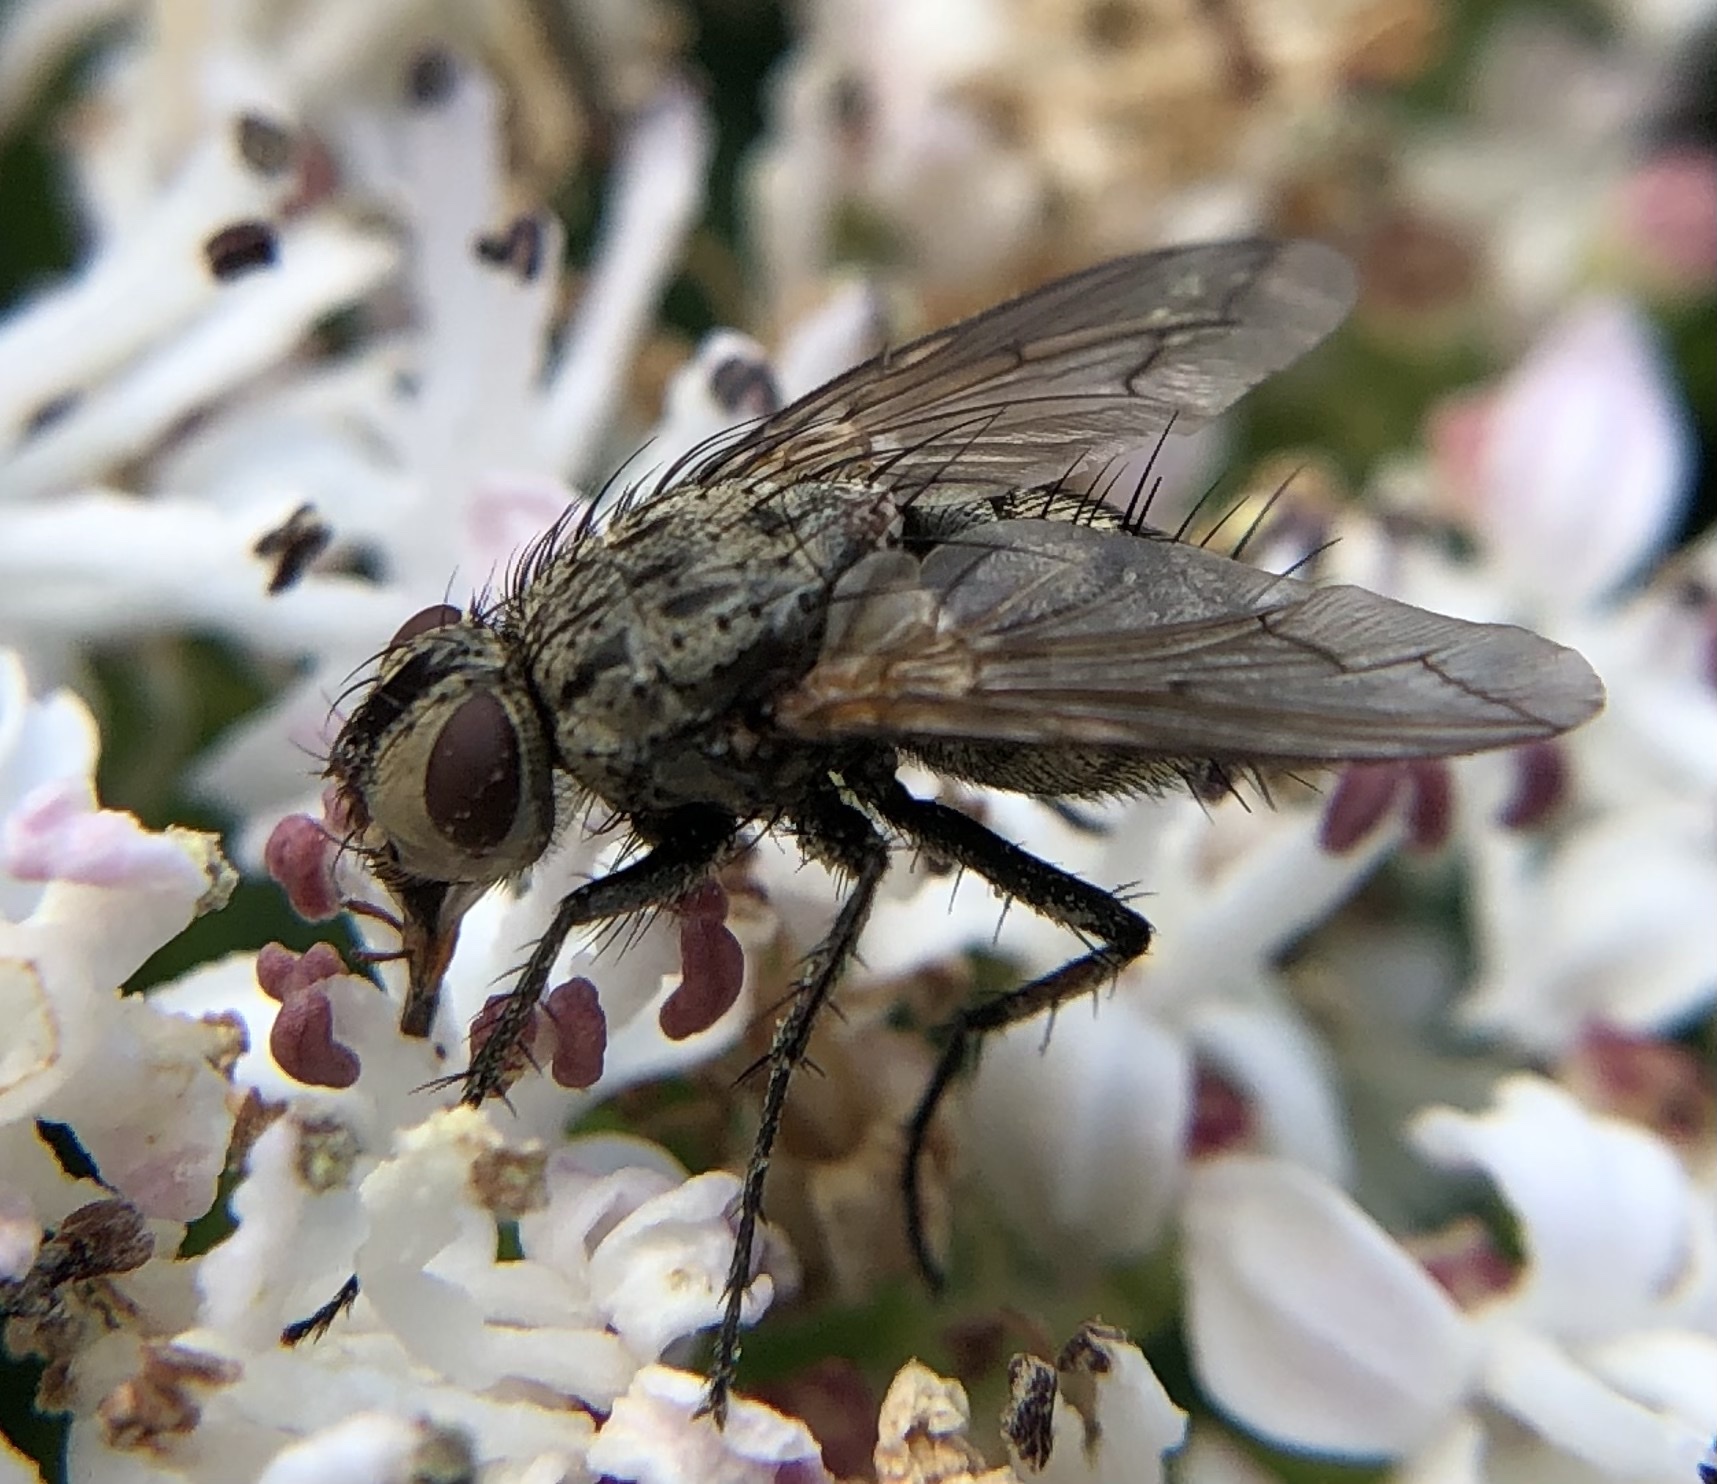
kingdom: Animalia
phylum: Arthropoda
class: Insecta
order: Diptera
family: Tachinidae
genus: Estheria
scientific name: Estheria cristata
